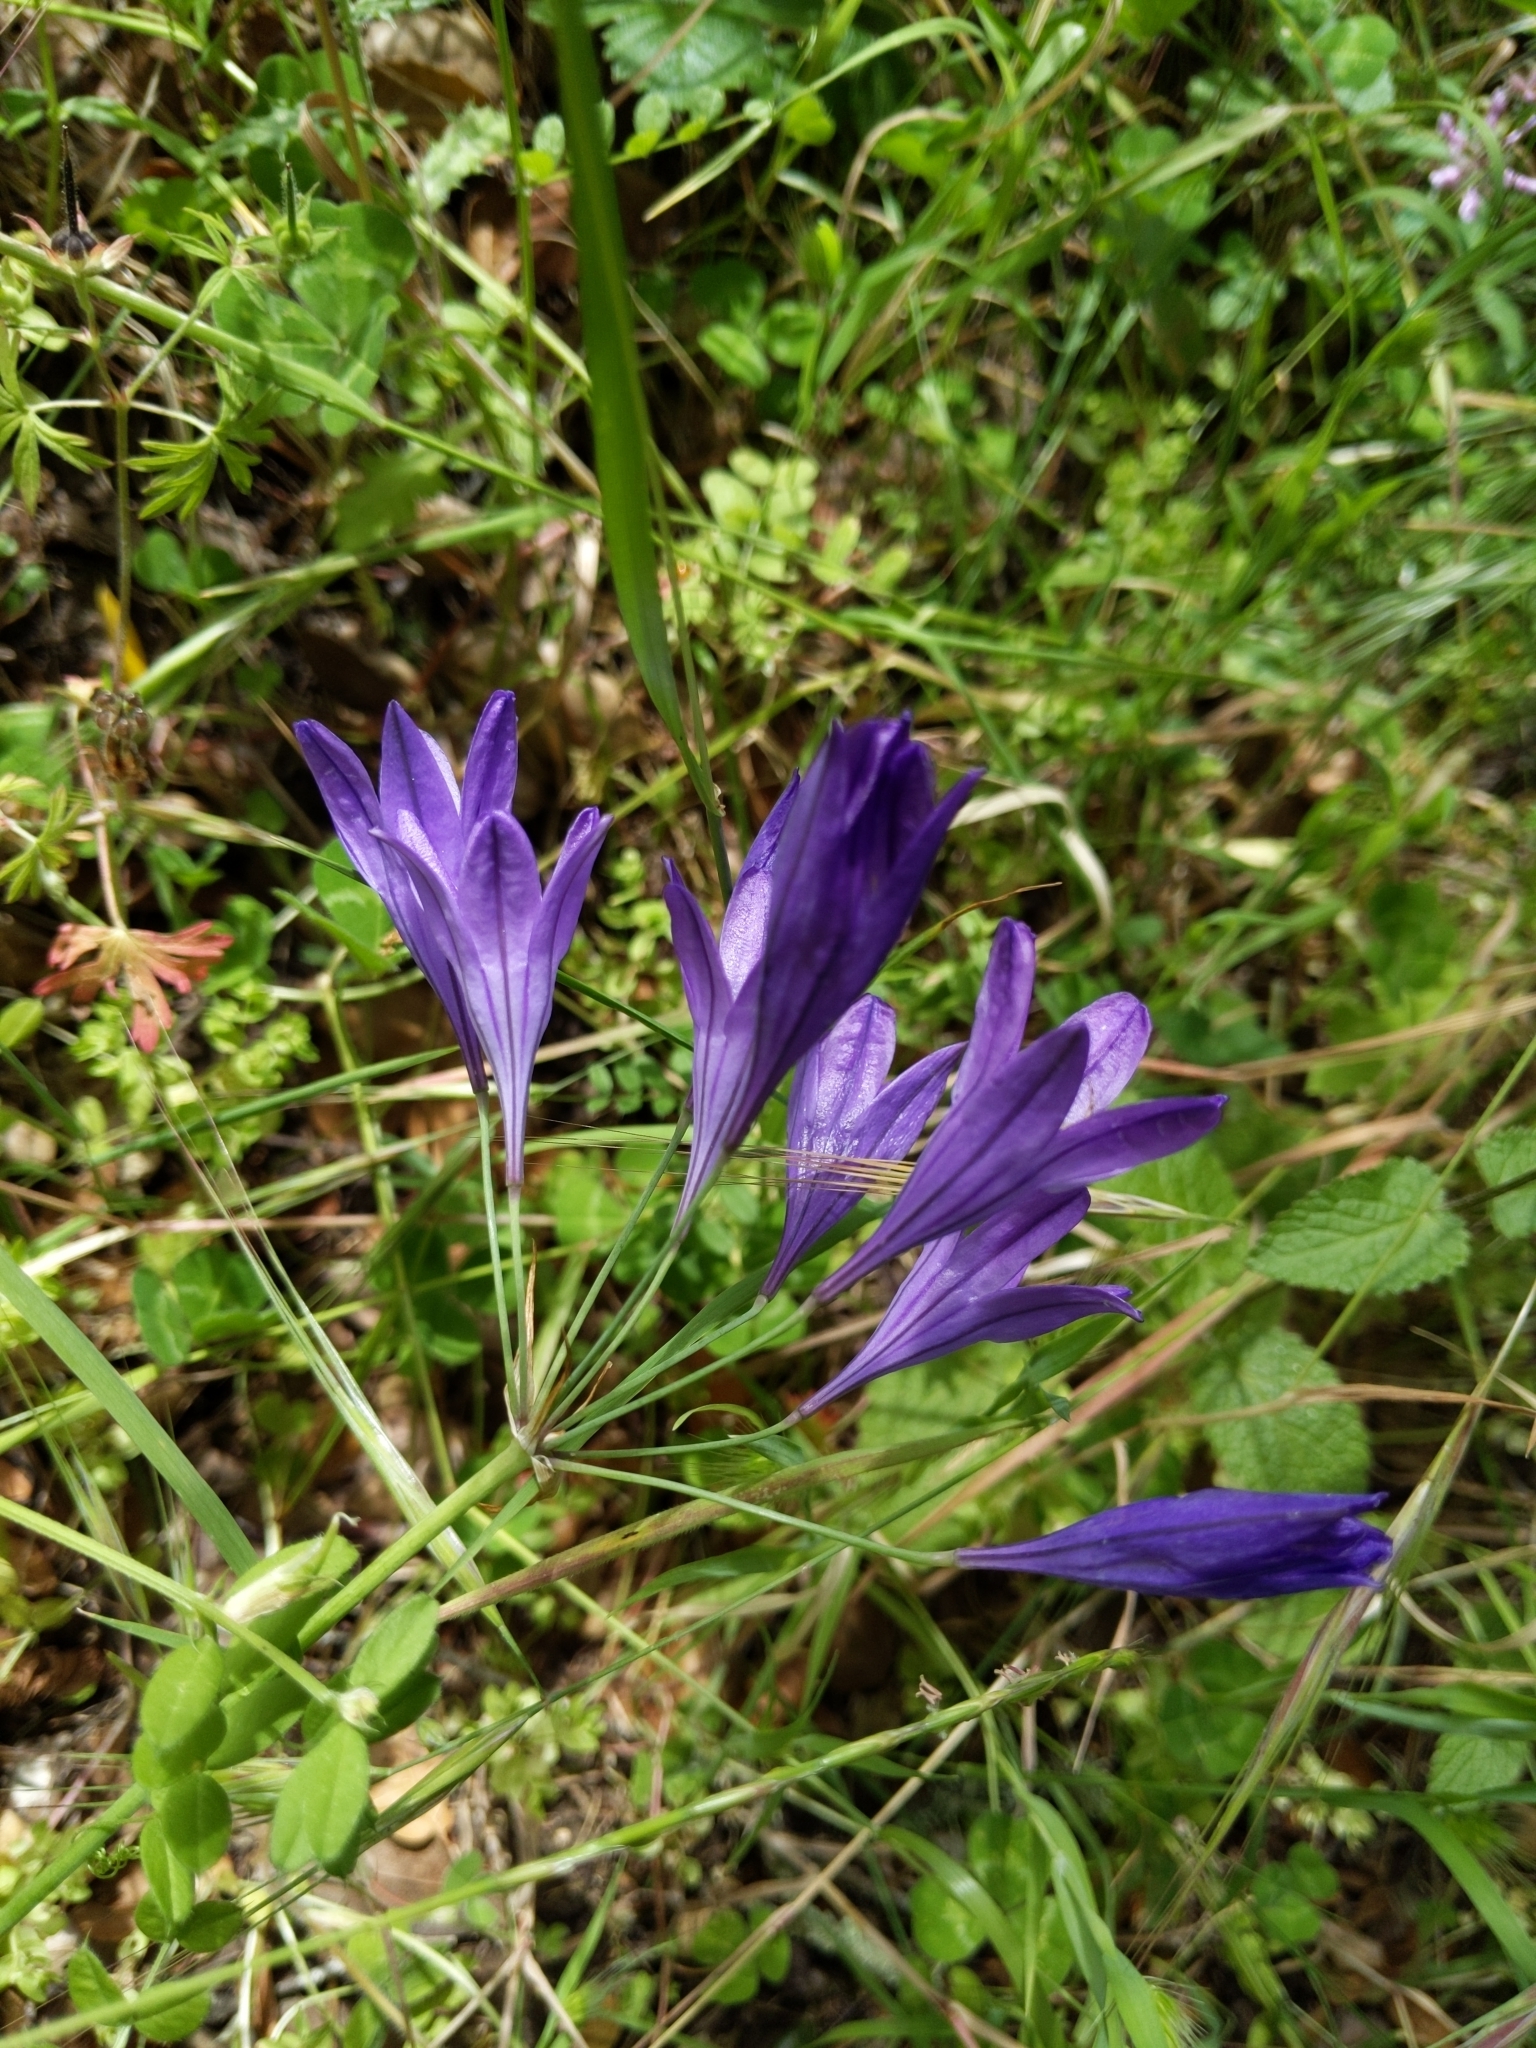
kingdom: Plantae
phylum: Tracheophyta
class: Liliopsida
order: Asparagales
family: Asparagaceae
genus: Triteleia
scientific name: Triteleia laxa
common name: Triplet-lily
